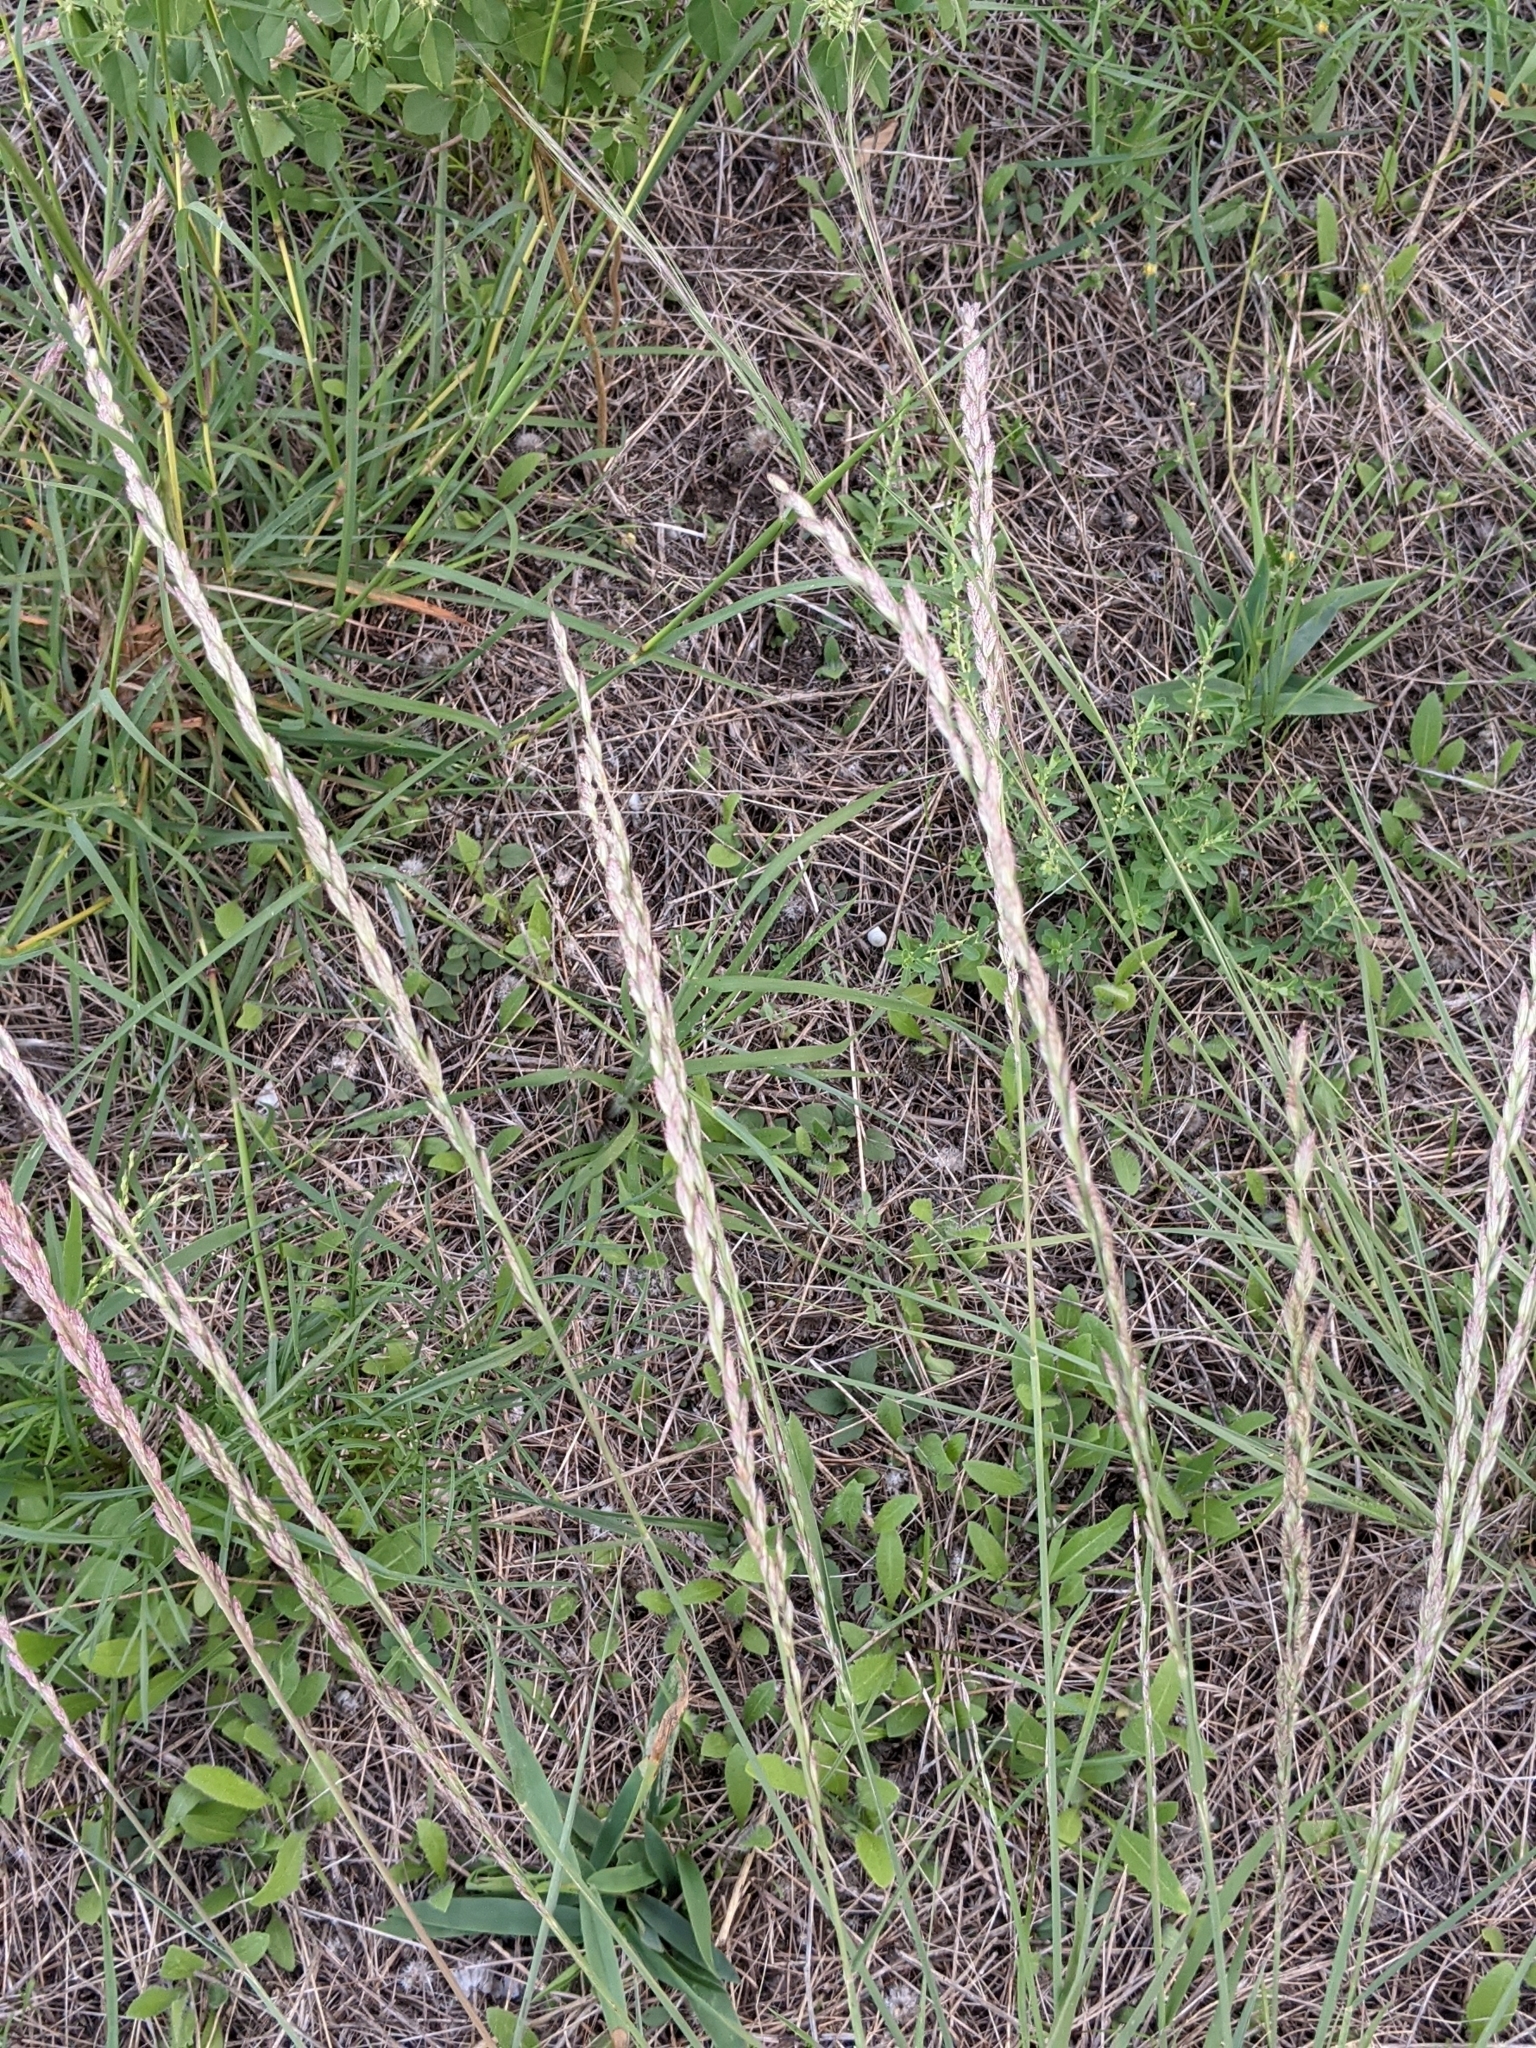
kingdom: Plantae
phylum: Tracheophyta
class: Liliopsida
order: Poales
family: Poaceae
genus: Tridentopsis
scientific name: Tridentopsis mutica
